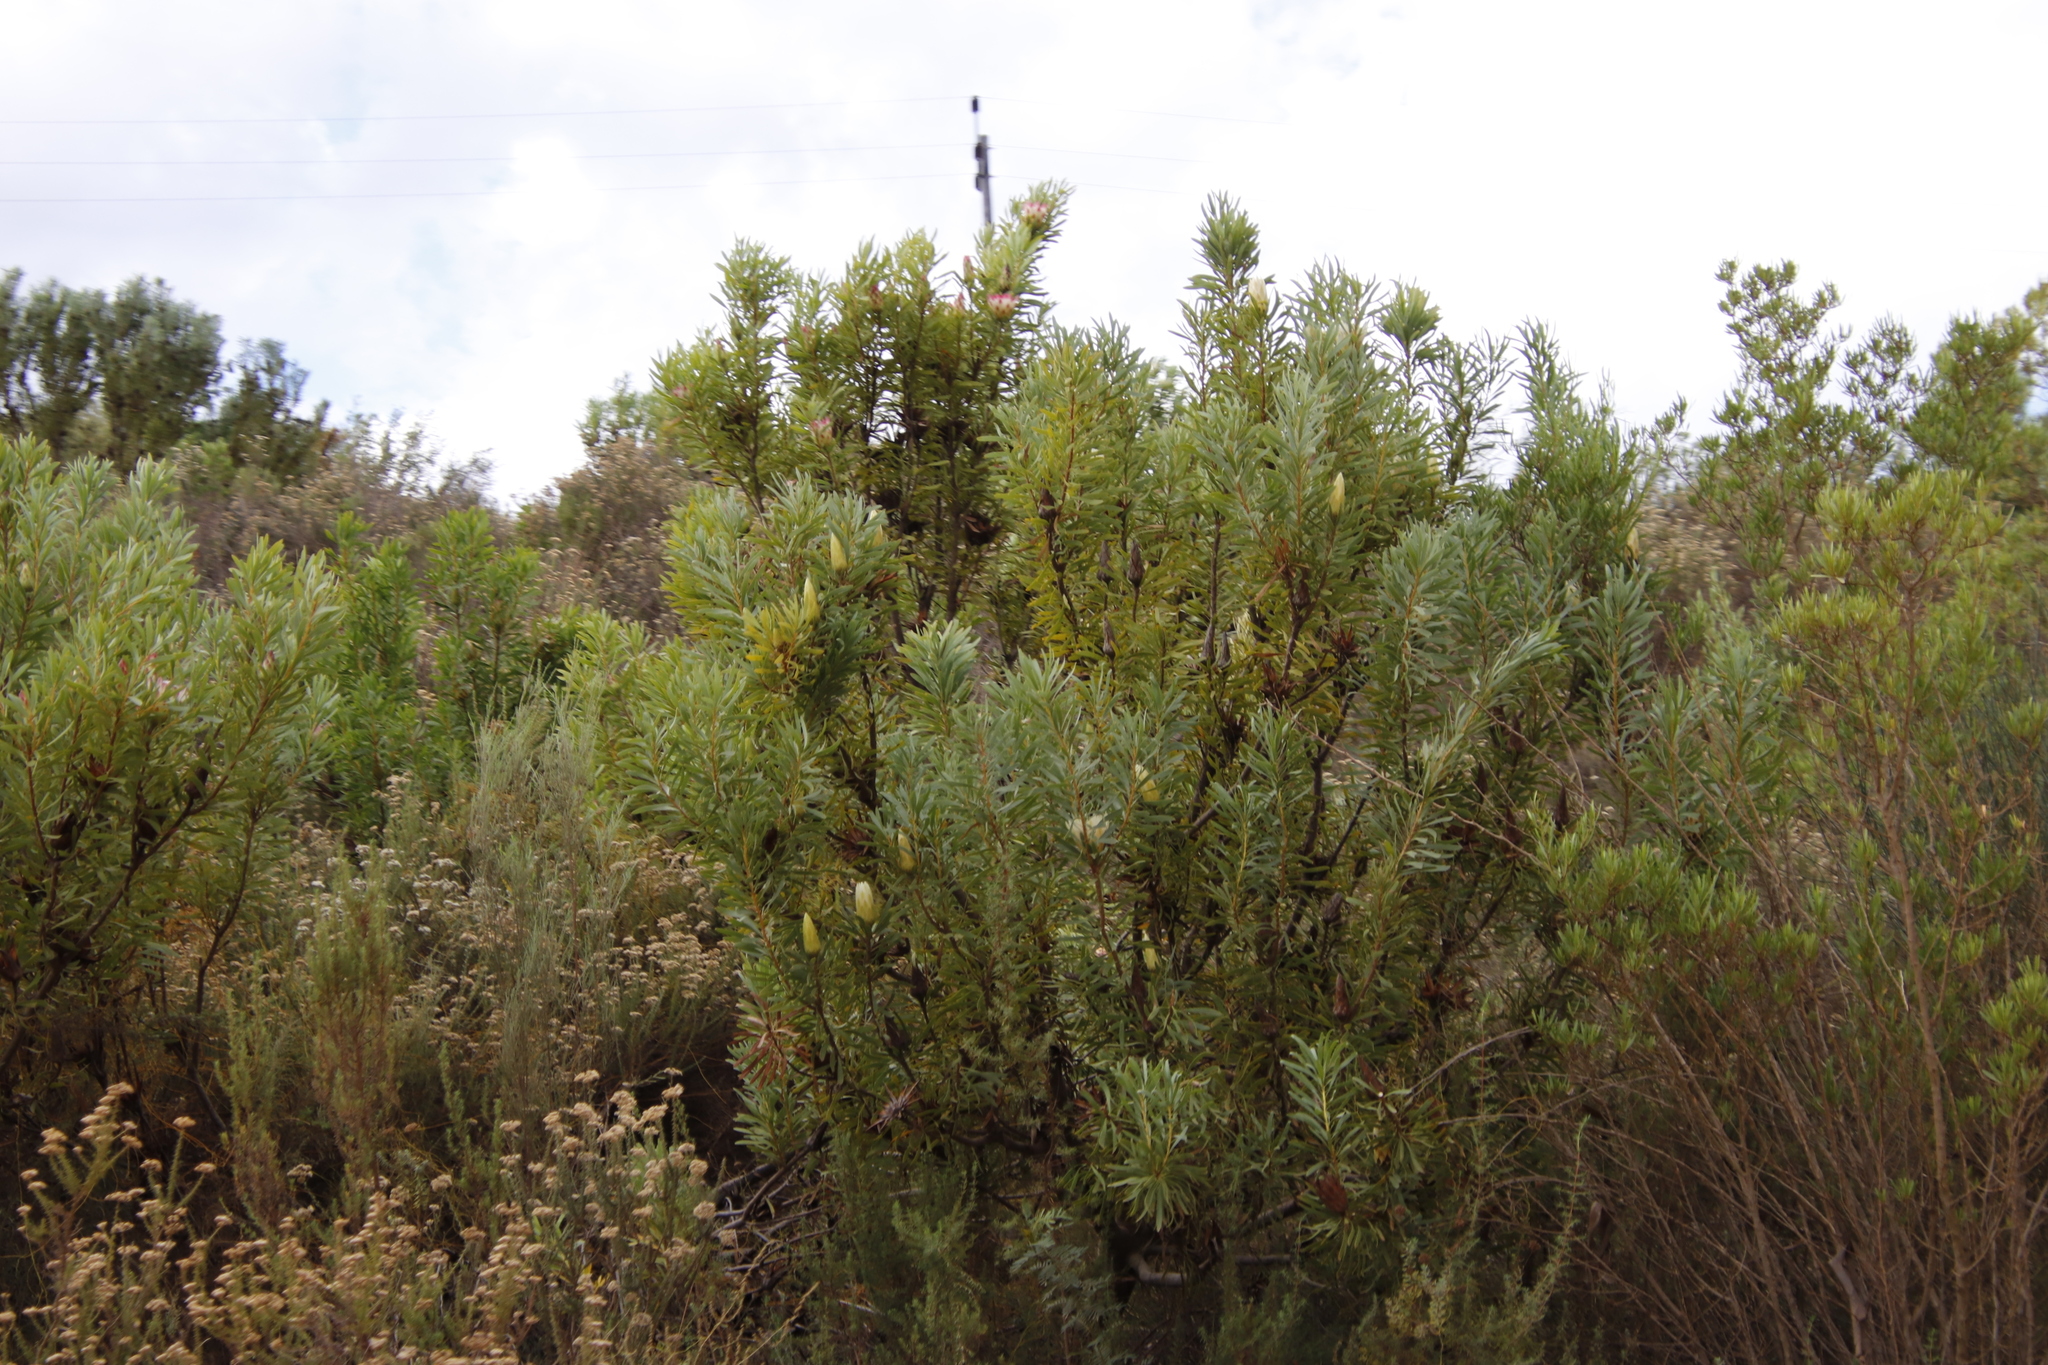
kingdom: Plantae
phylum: Tracheophyta
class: Magnoliopsida
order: Proteales
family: Proteaceae
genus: Protea
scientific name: Protea repens
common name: Sugarbush
